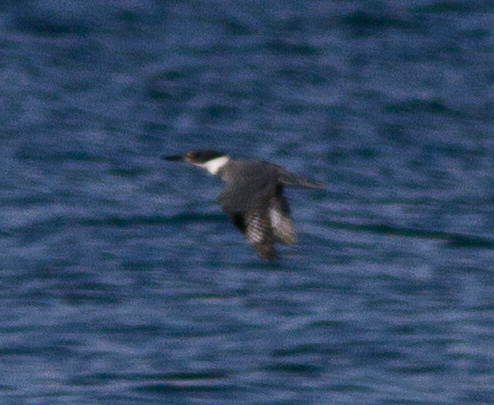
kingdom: Animalia
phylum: Chordata
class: Aves
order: Coraciiformes
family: Alcedinidae
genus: Megaceryle
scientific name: Megaceryle alcyon
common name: Belted kingfisher
